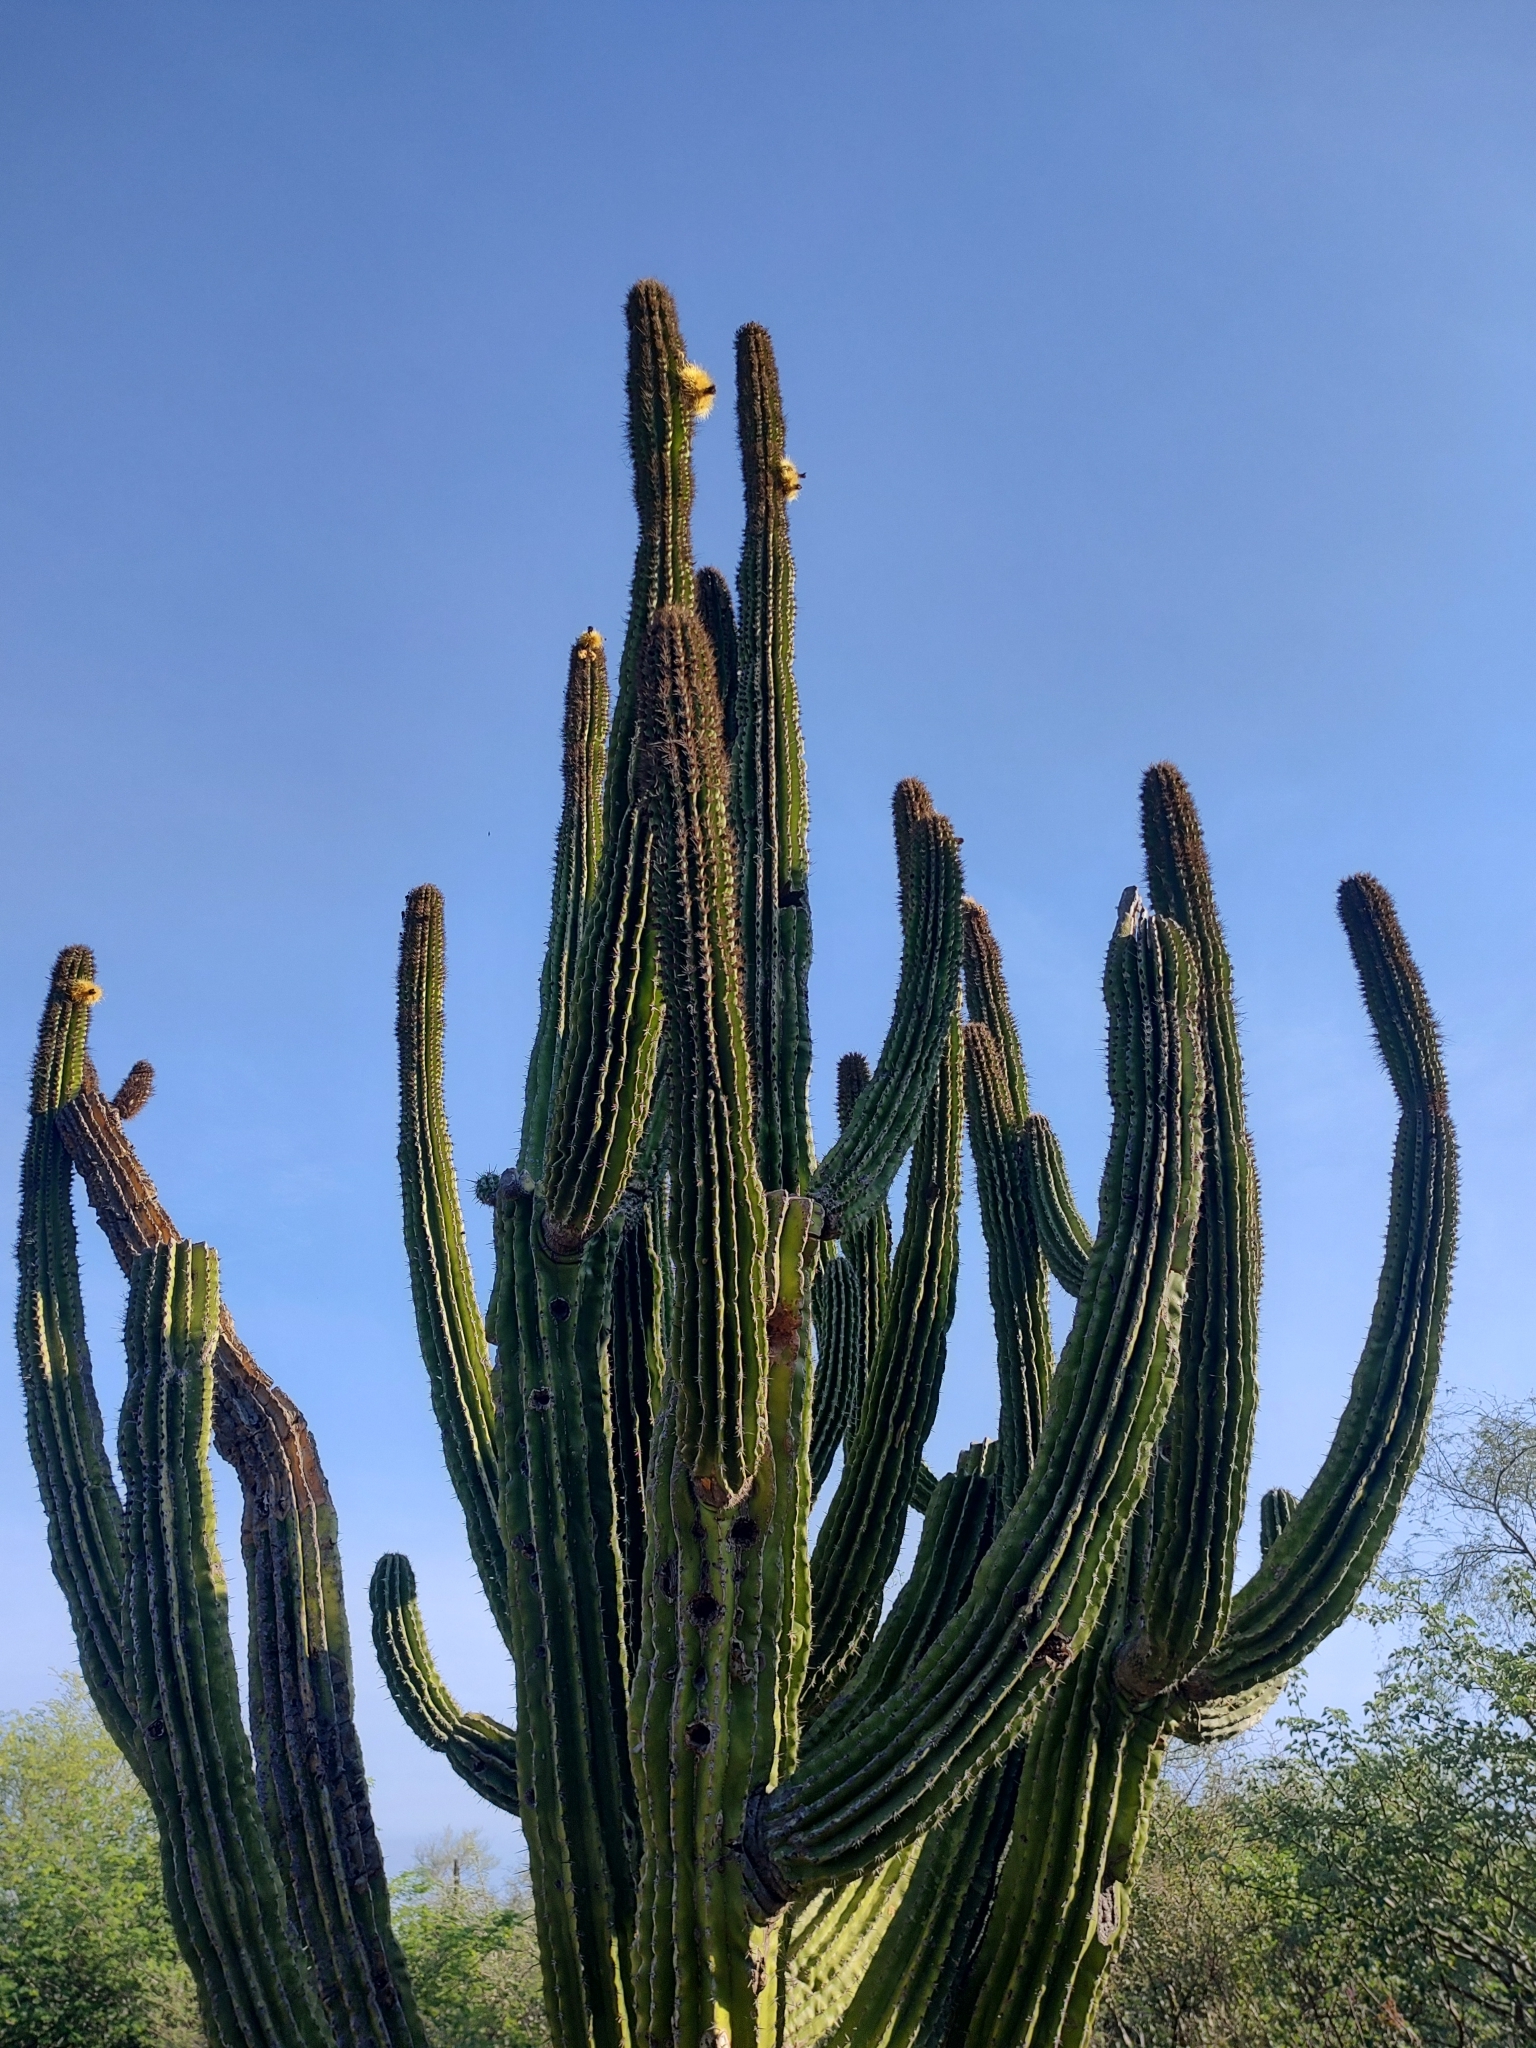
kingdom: Plantae
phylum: Tracheophyta
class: Magnoliopsida
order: Caryophyllales
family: Cactaceae
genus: Pachycereus
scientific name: Pachycereus pecten-aboriginum
